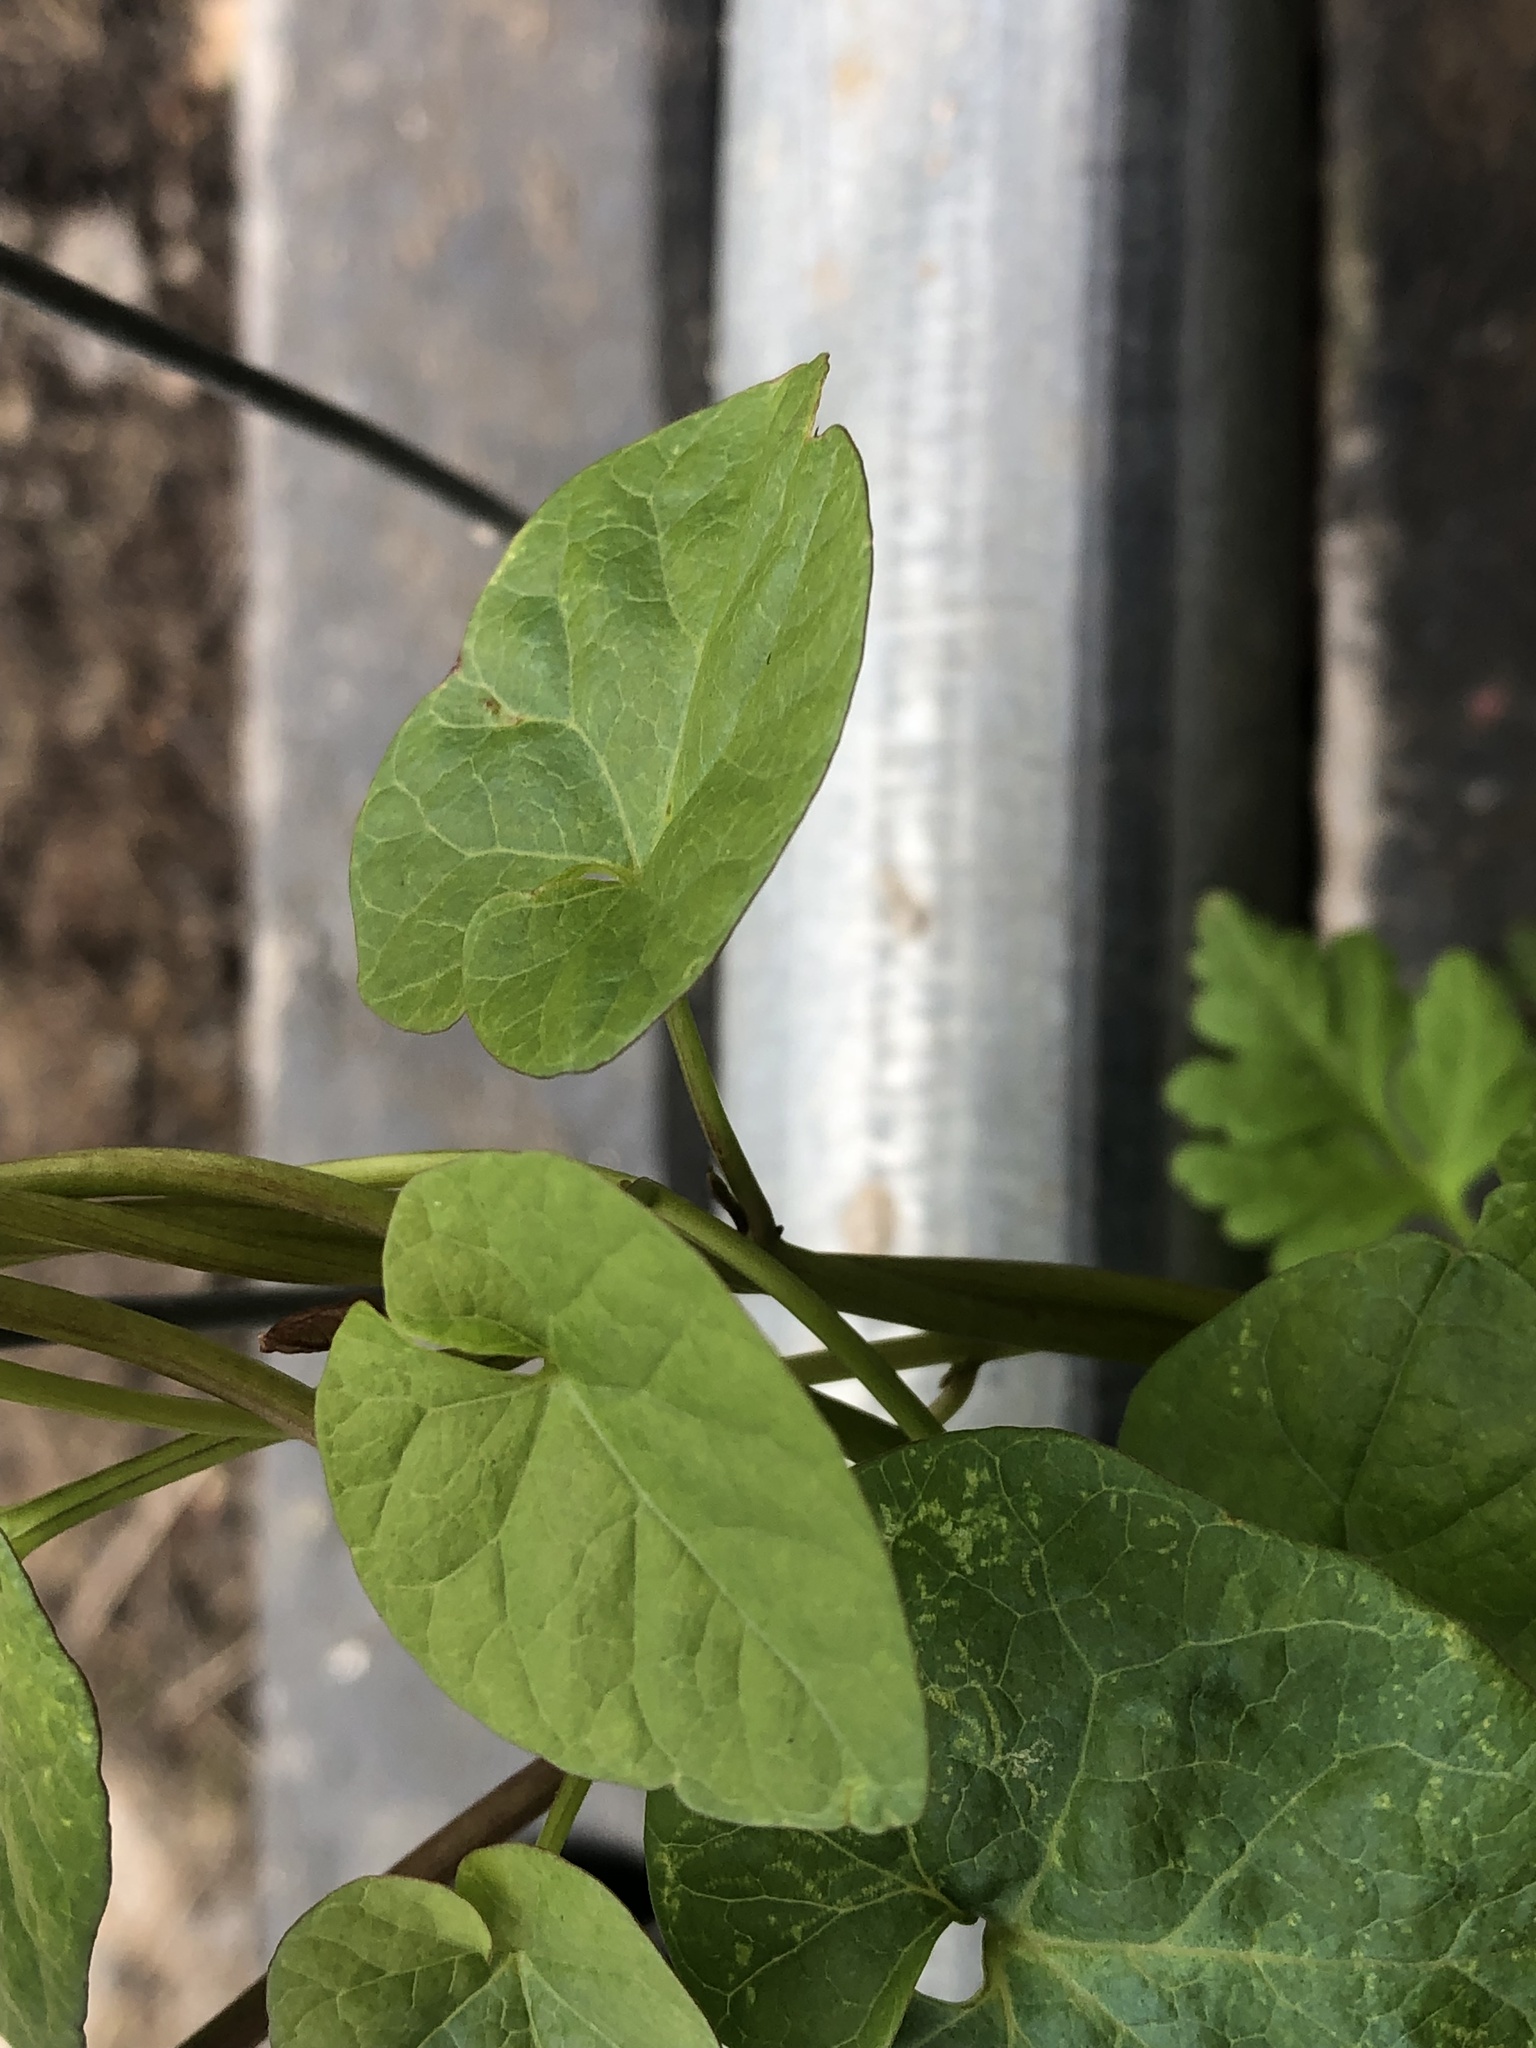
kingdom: Plantae
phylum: Tracheophyta
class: Magnoliopsida
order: Solanales
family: Convolvulaceae
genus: Calystegia
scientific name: Calystegia
